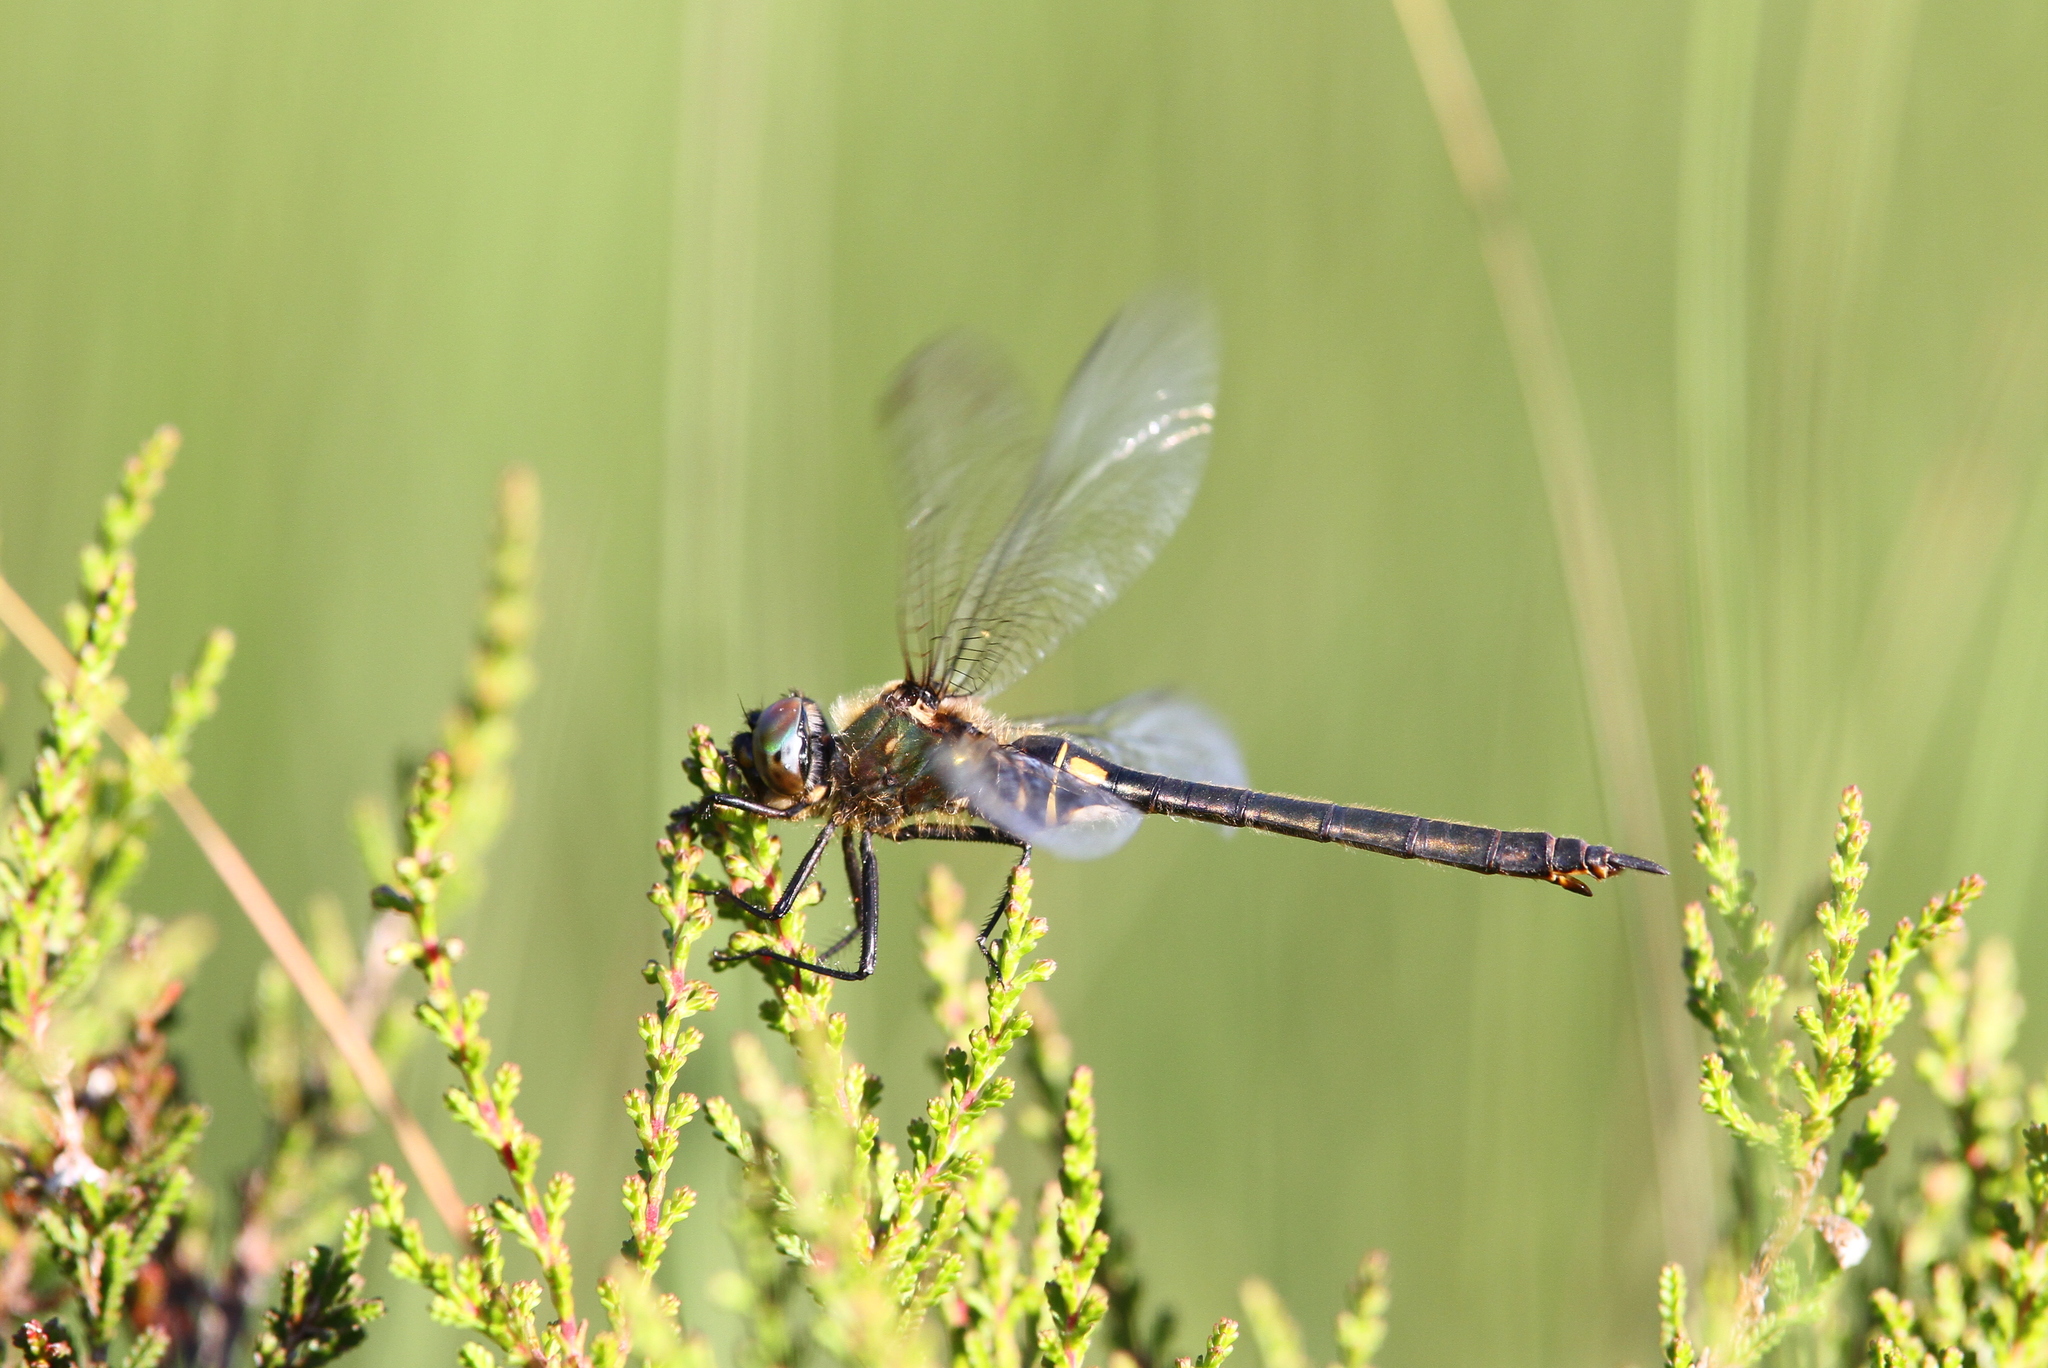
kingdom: Animalia
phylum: Arthropoda
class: Insecta
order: Odonata
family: Corduliidae
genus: Somatochlora
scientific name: Somatochlora arctica
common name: Northern emerald
